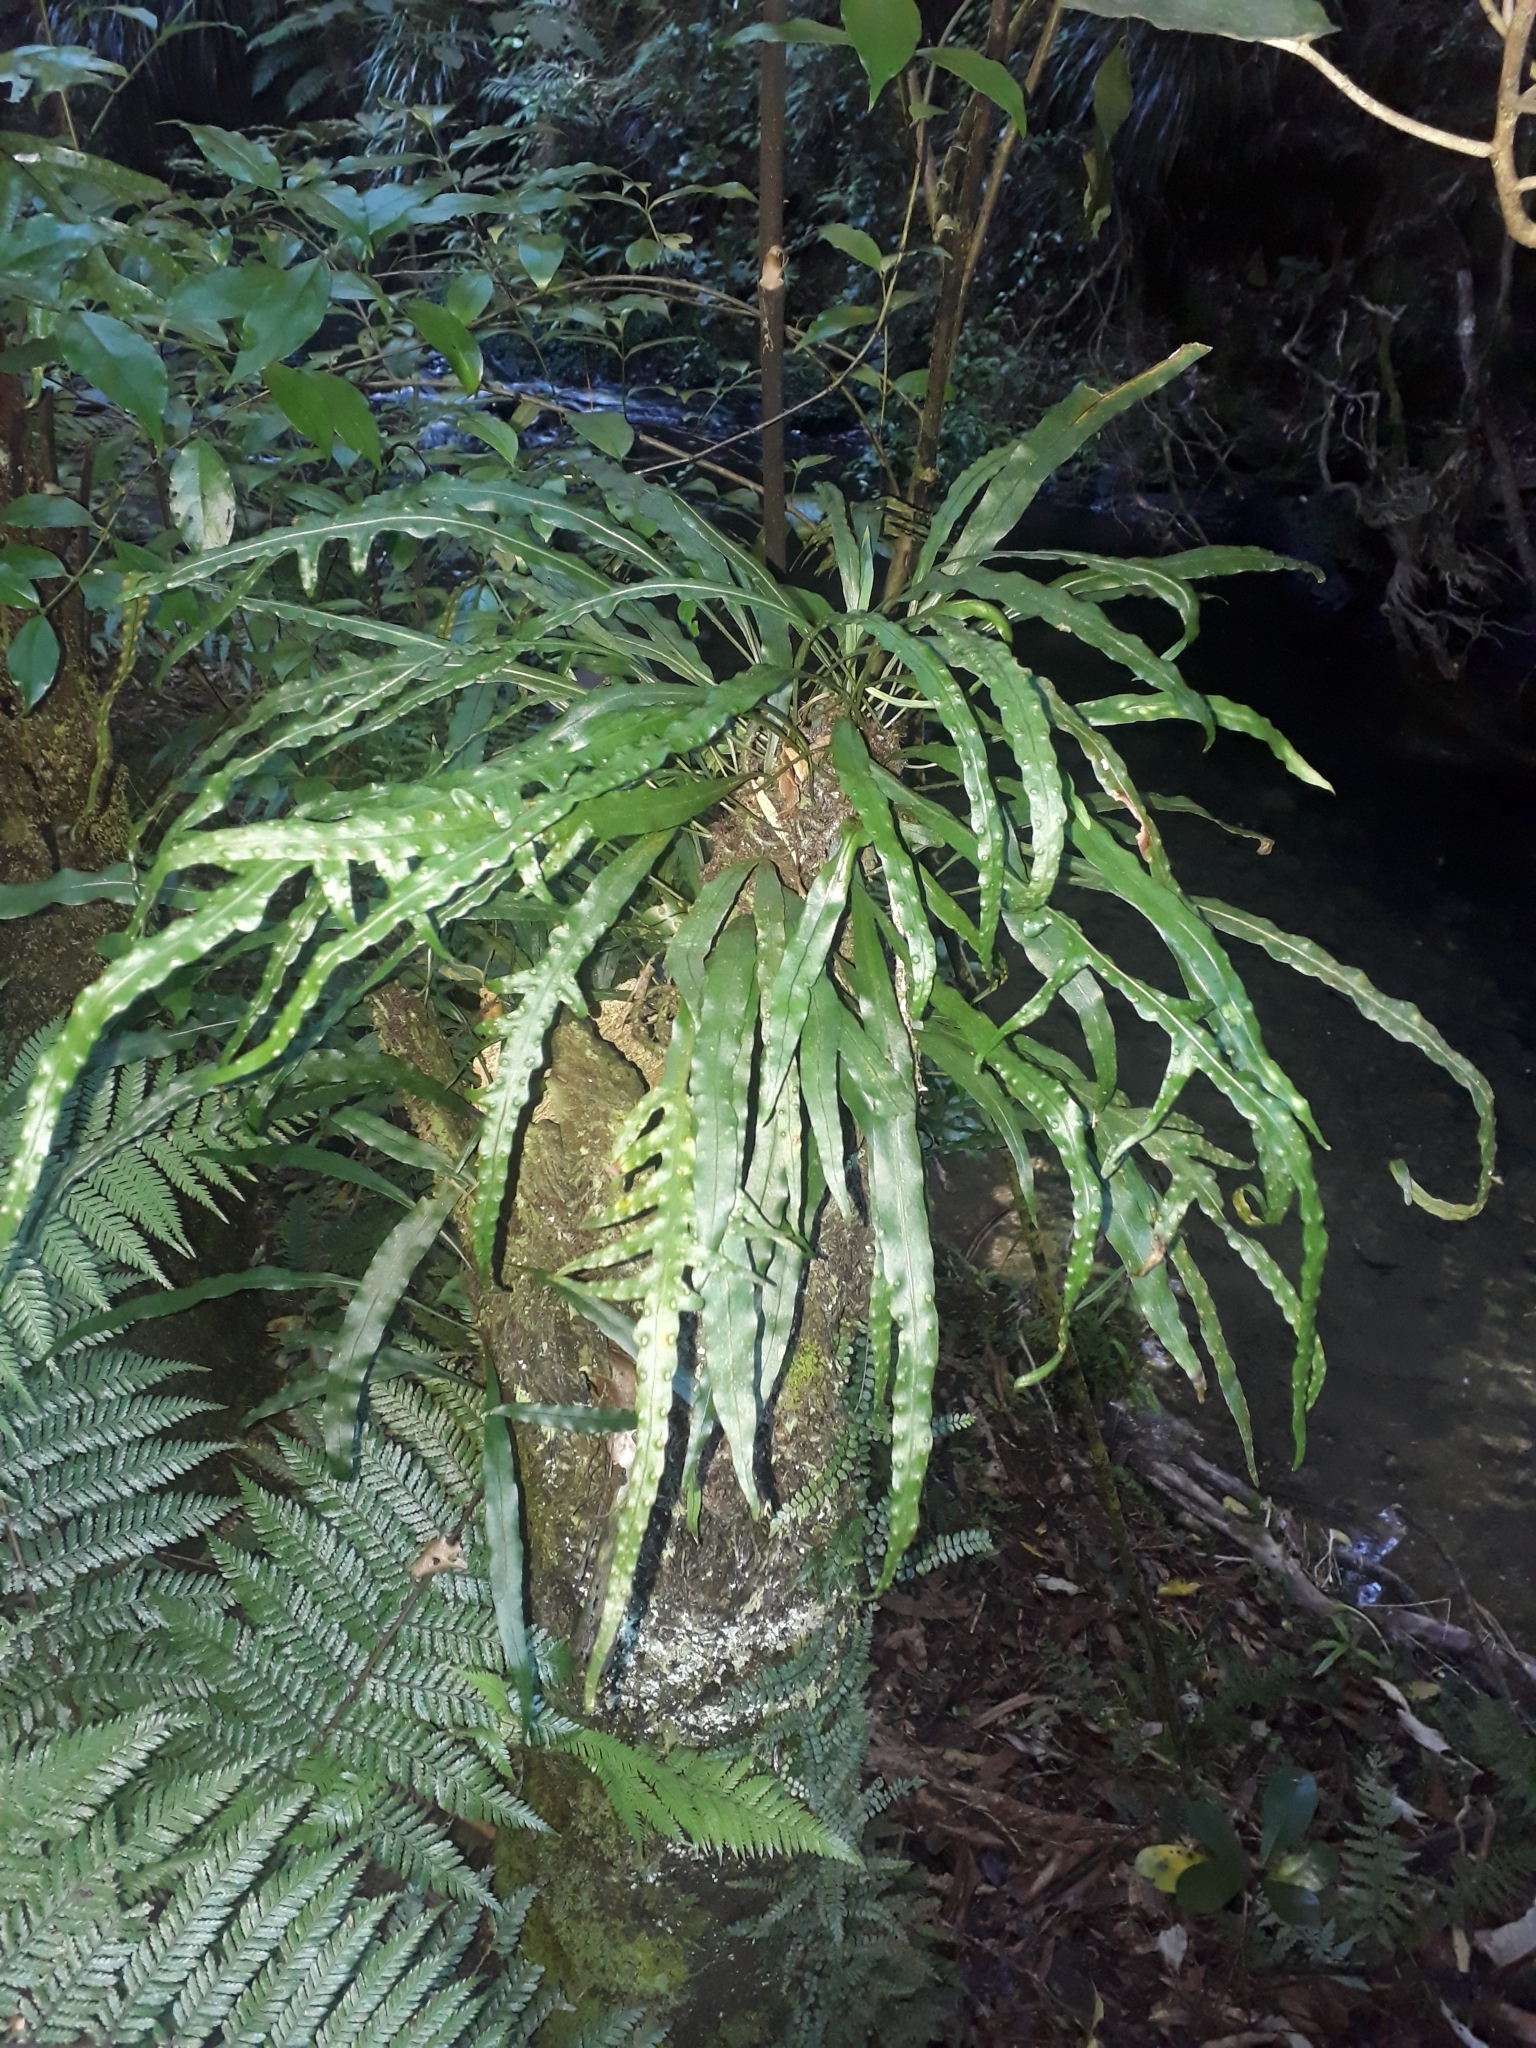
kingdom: Plantae
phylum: Tracheophyta
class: Polypodiopsida
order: Polypodiales
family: Polypodiaceae
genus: Lecanopteris
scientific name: Lecanopteris scandens
